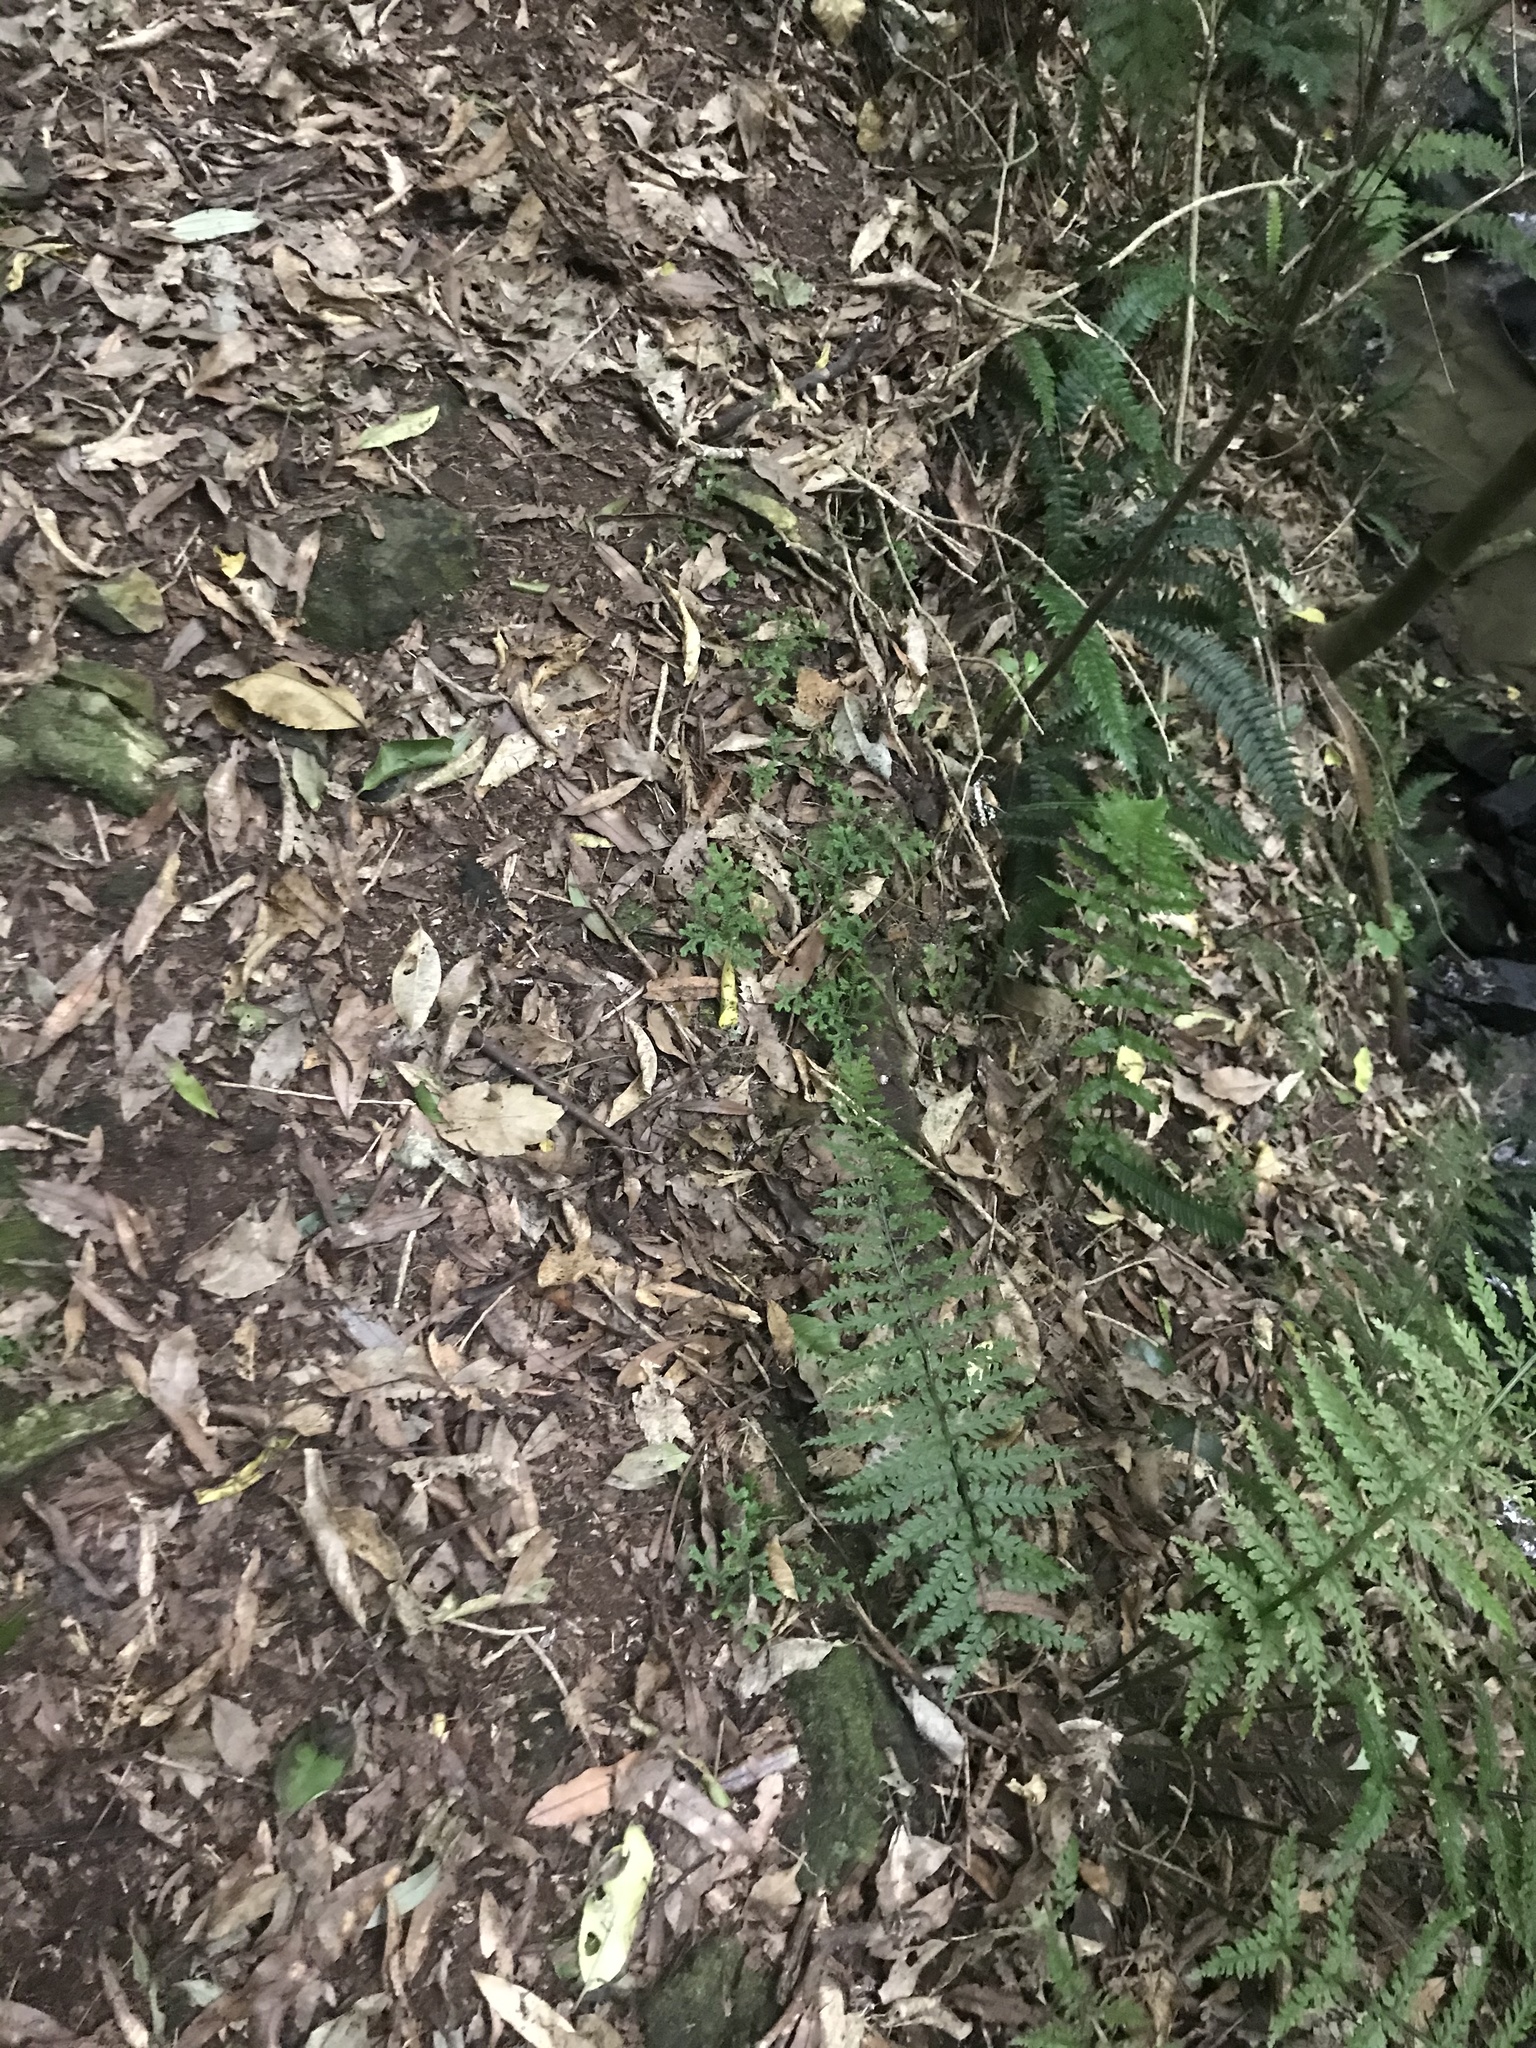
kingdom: Plantae
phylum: Tracheophyta
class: Lycopodiopsida
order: Selaginellales
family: Selaginellaceae
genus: Selaginella
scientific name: Selaginella kraussiana
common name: Krauss' spikemoss
